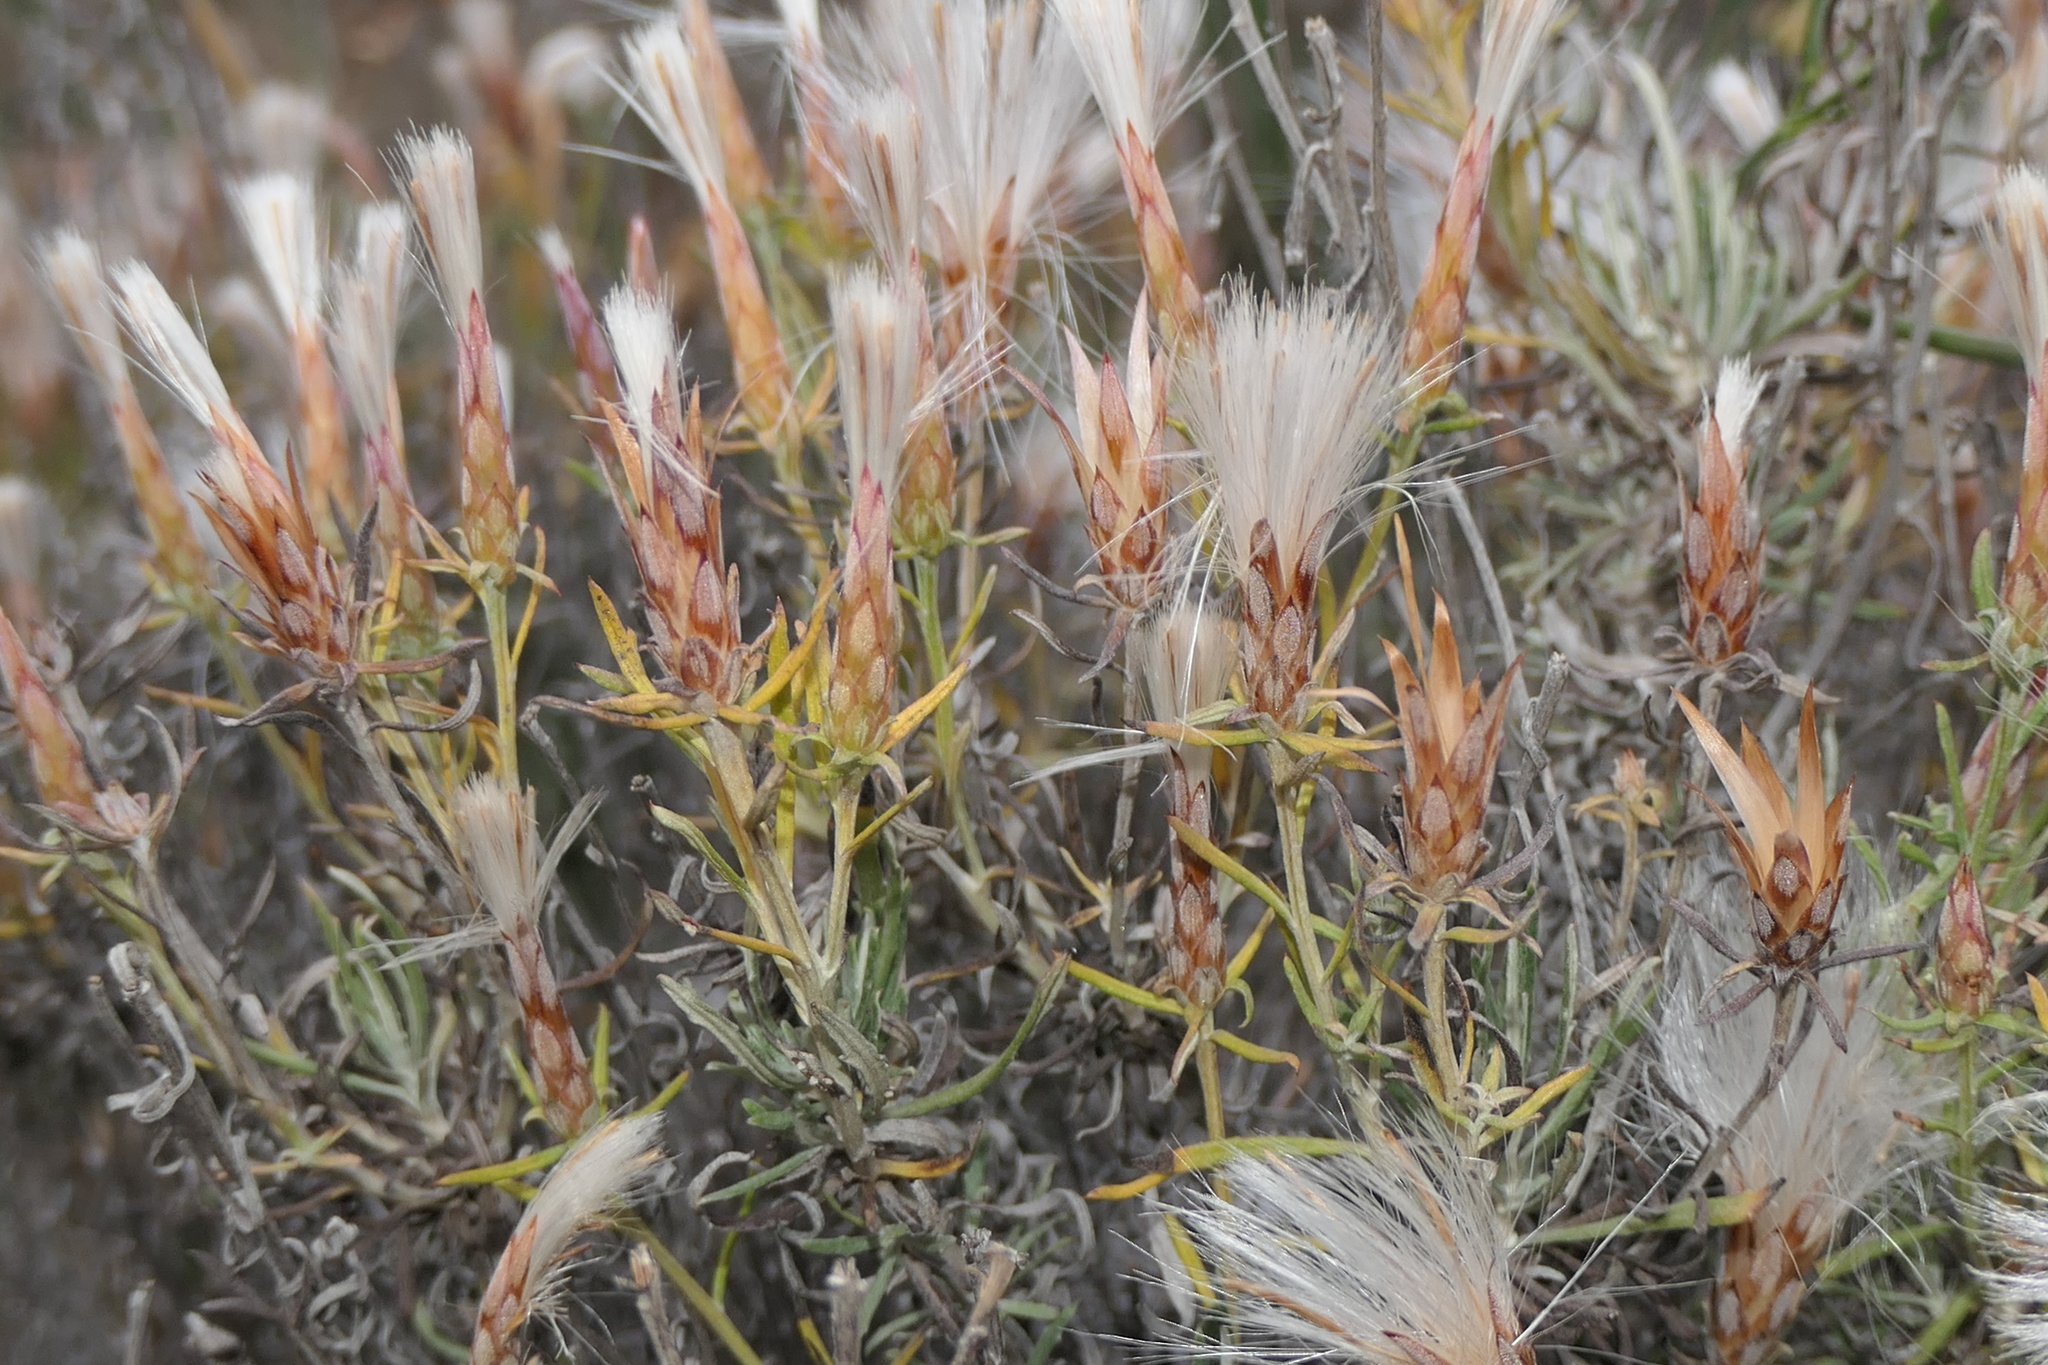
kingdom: Plantae
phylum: Tracheophyta
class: Magnoliopsida
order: Asterales
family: Asteraceae
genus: Staehelina
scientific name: Staehelina dubia
